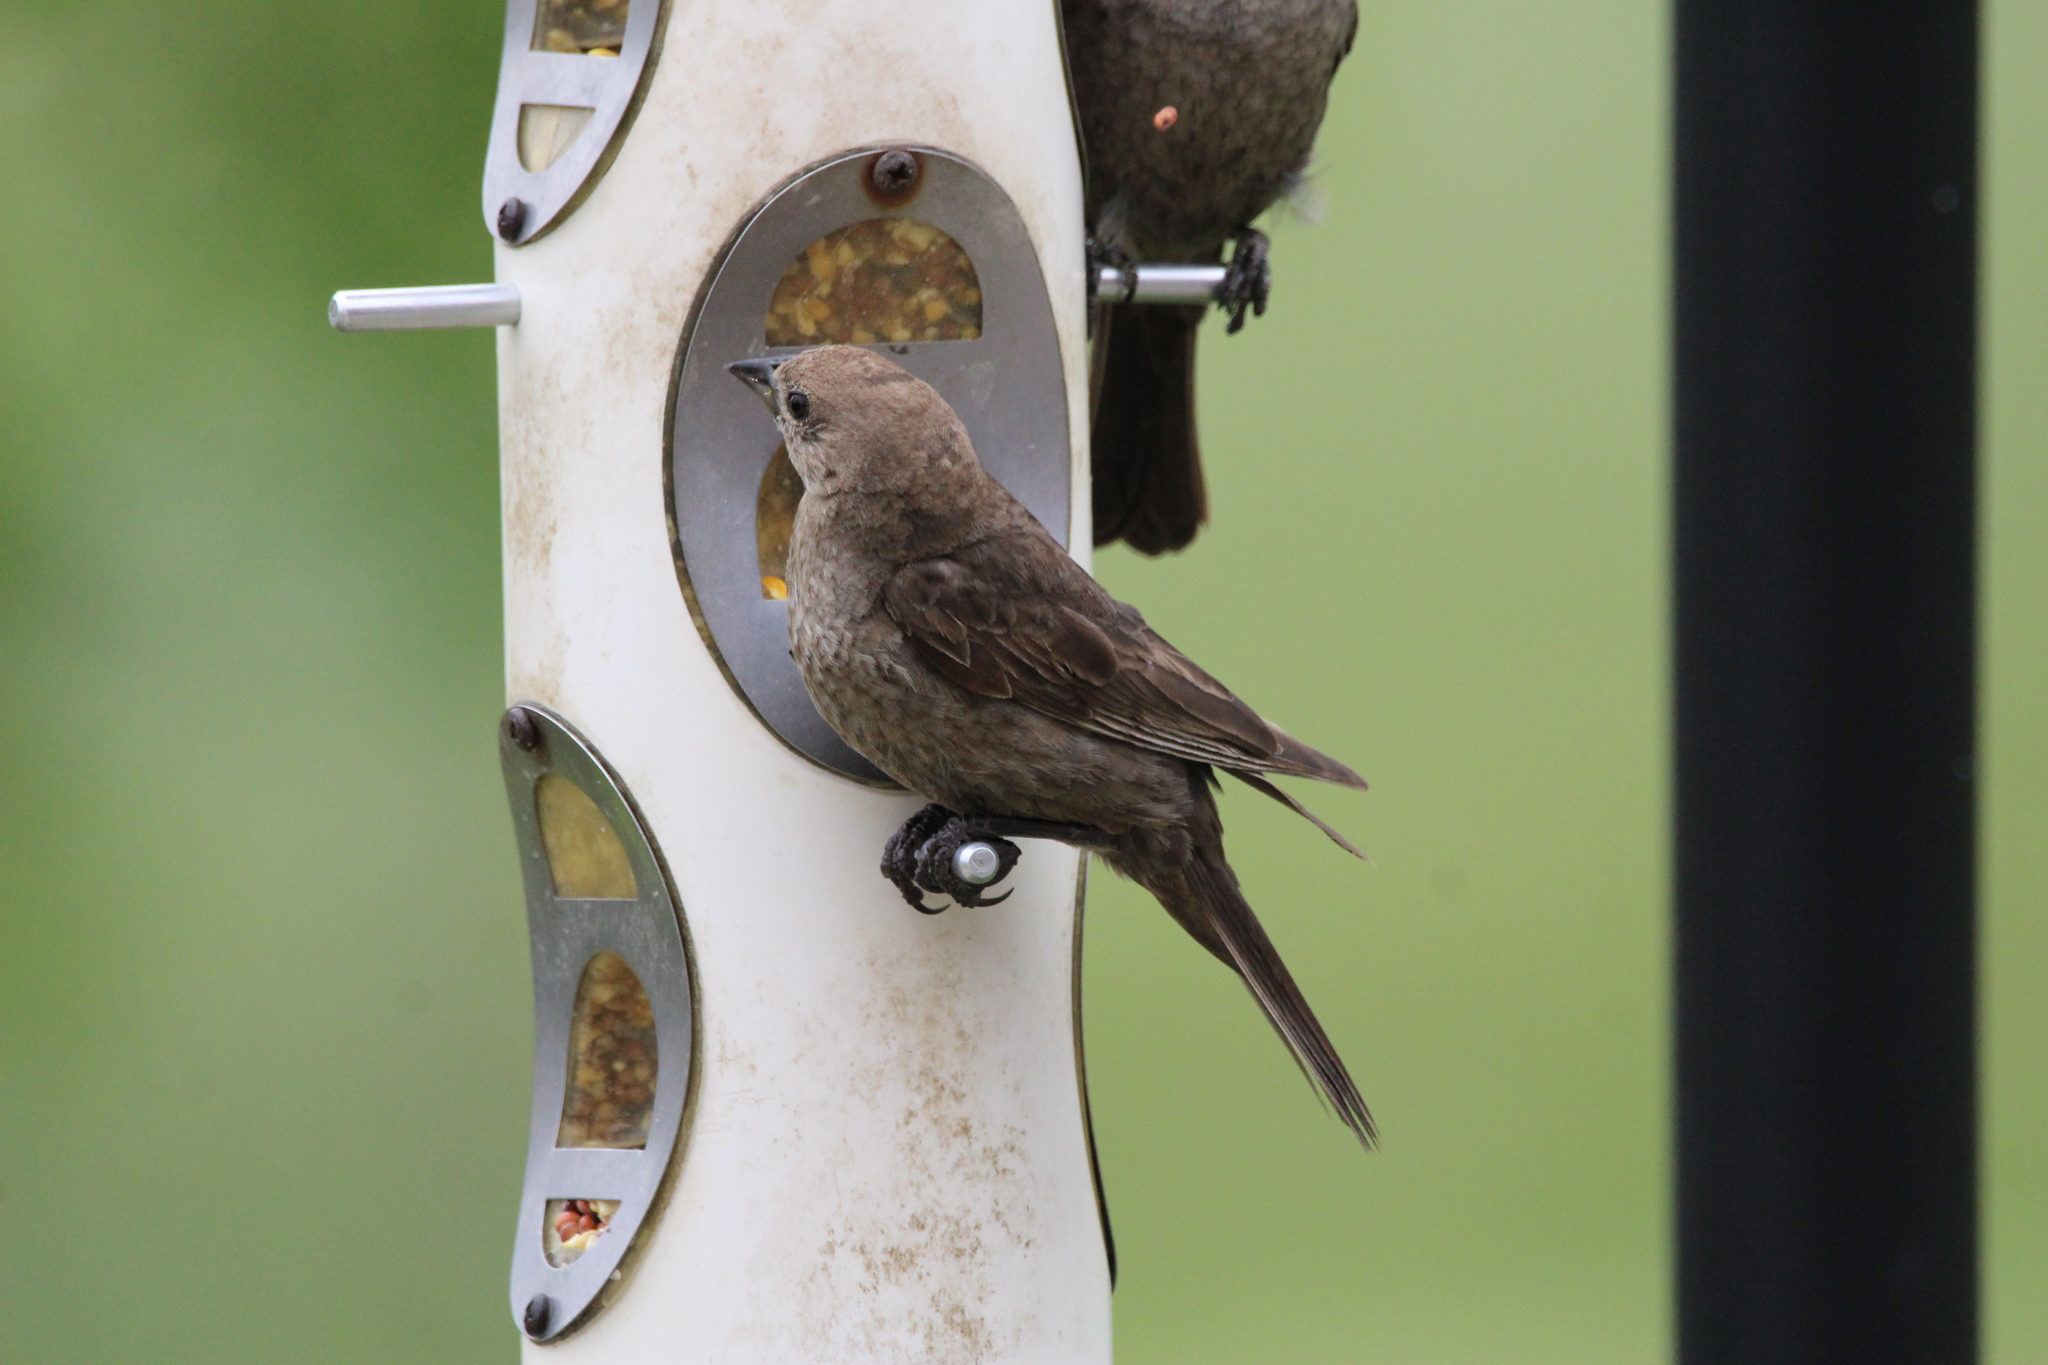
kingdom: Animalia
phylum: Chordata
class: Aves
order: Passeriformes
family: Icteridae
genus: Molothrus
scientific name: Molothrus ater
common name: Brown-headed cowbird
